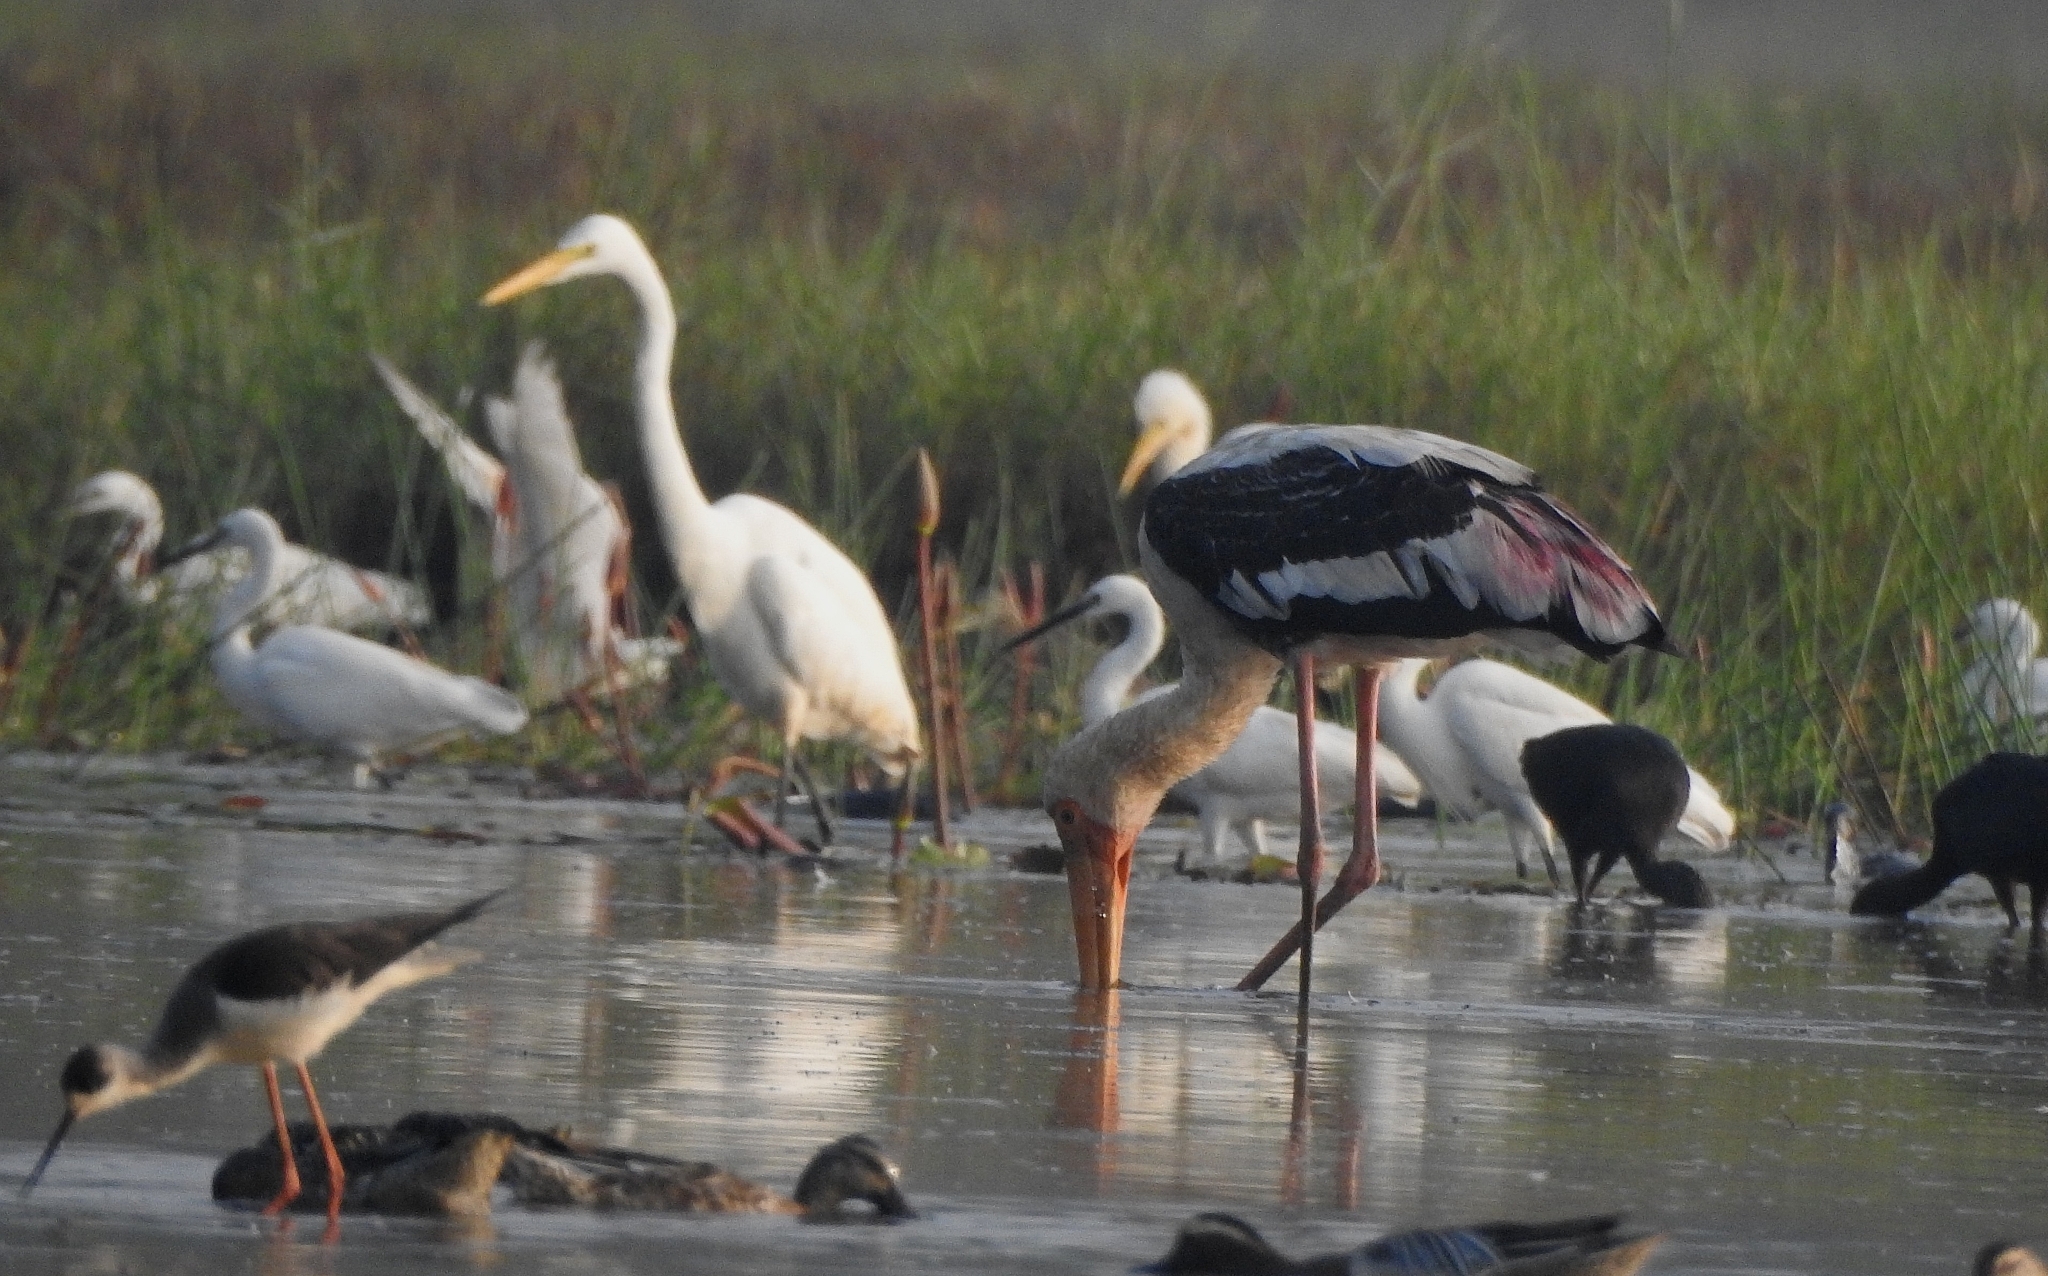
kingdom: Animalia
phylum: Chordata
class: Aves
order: Ciconiiformes
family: Ciconiidae
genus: Mycteria
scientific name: Mycteria leucocephala
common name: Painted stork
